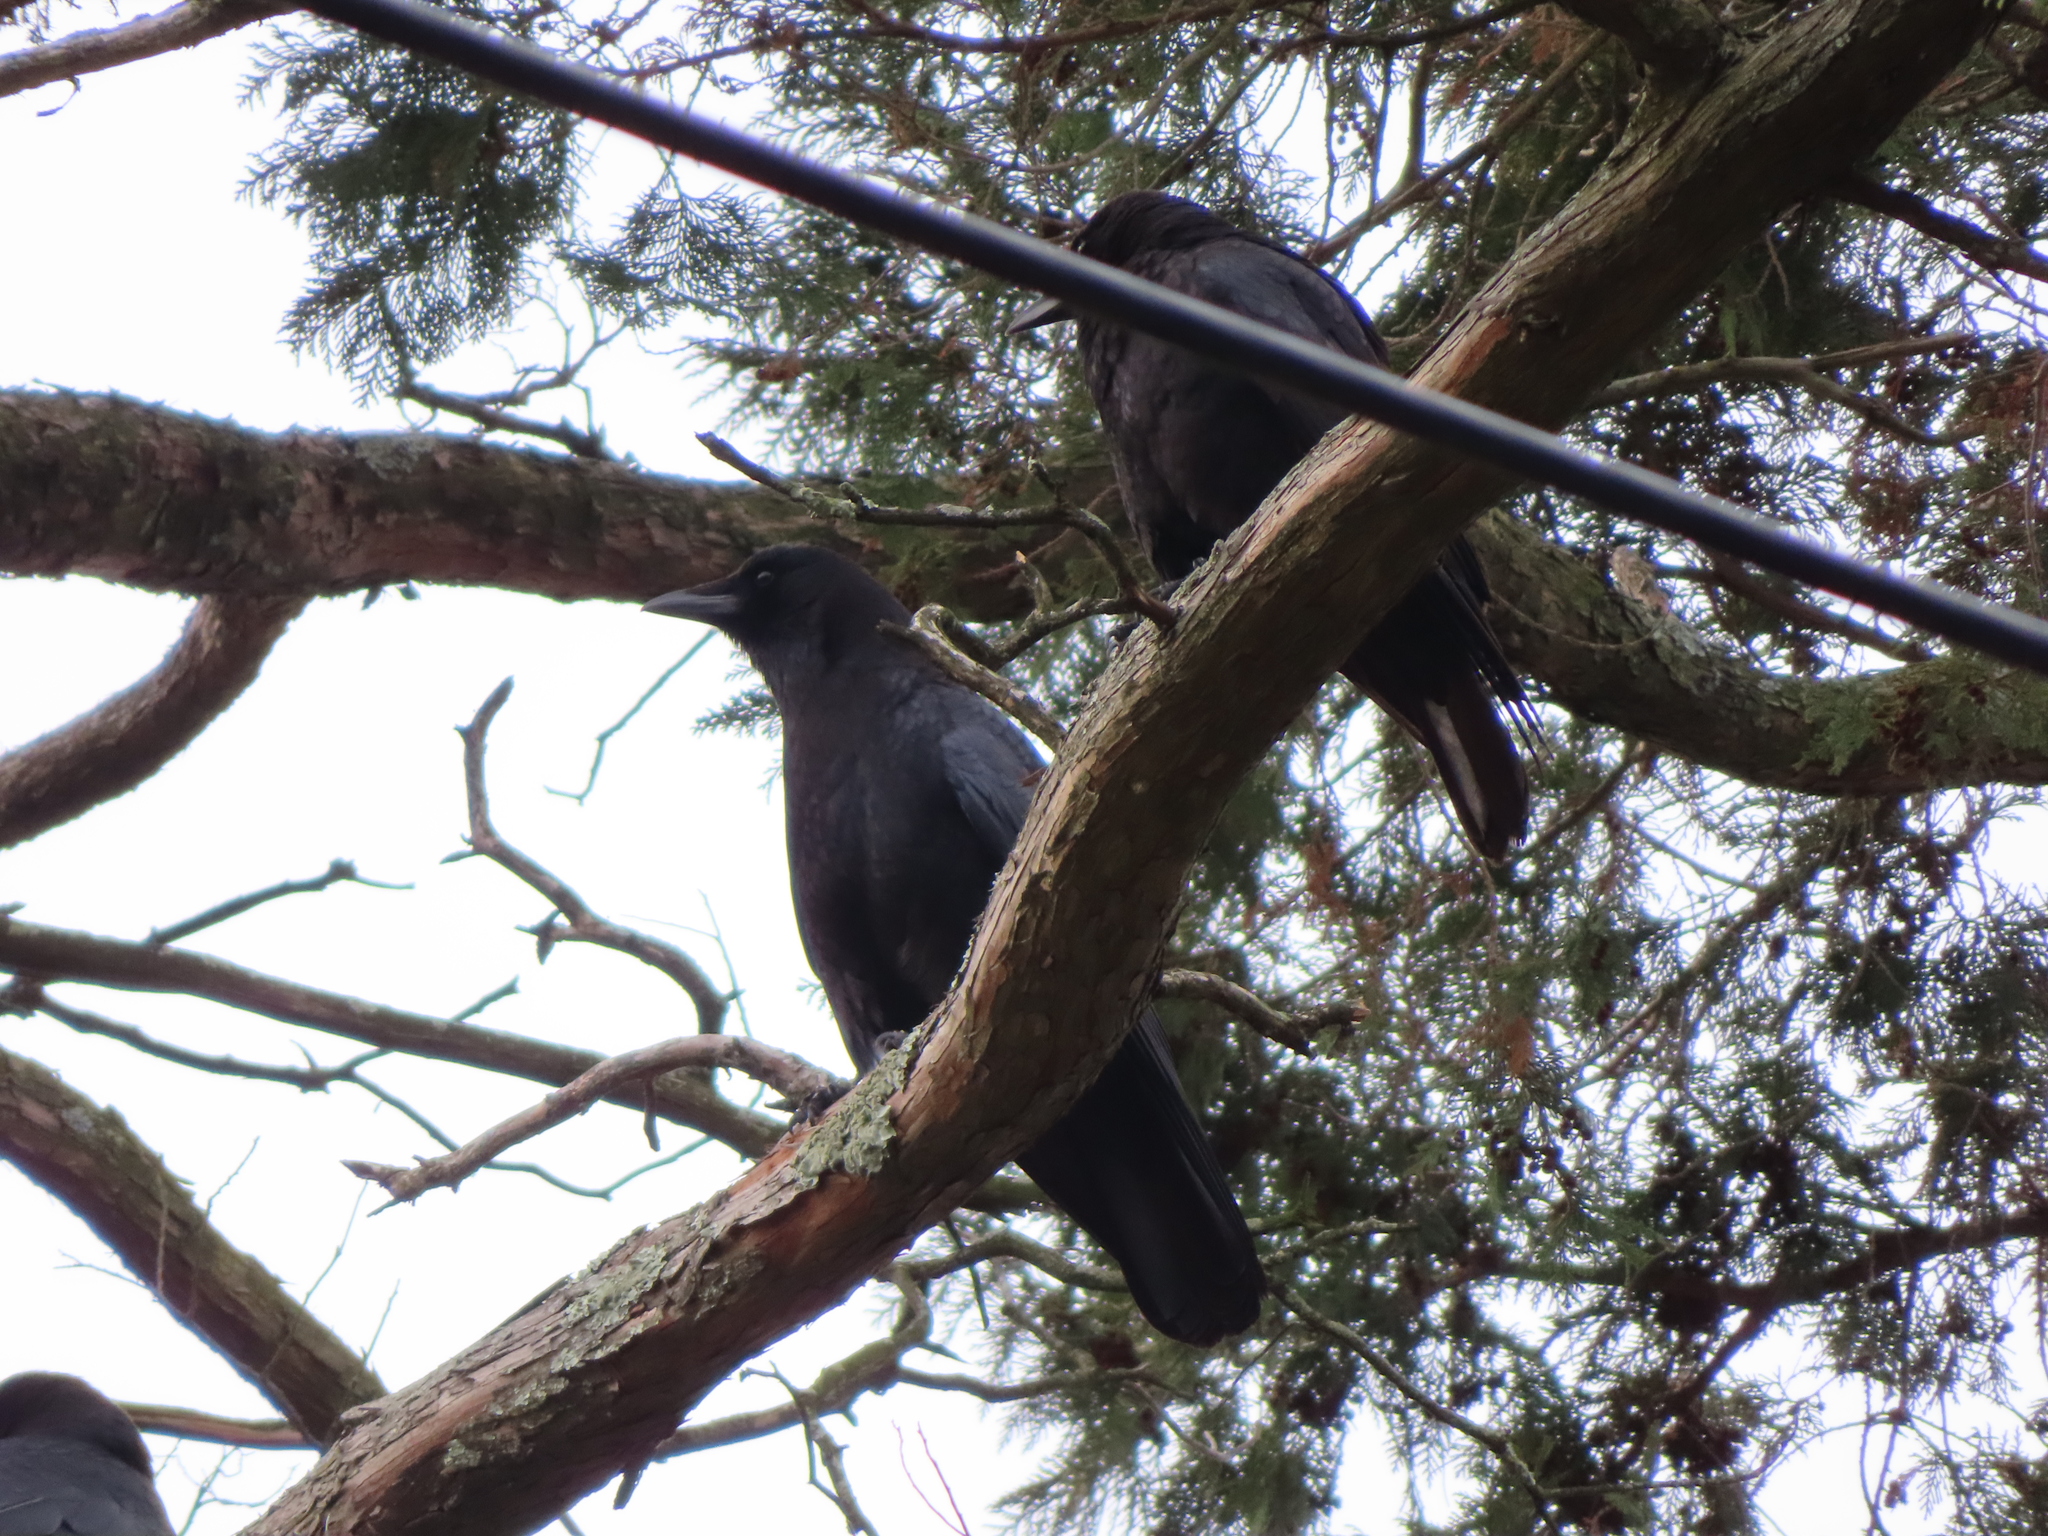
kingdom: Animalia
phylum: Chordata
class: Aves
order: Passeriformes
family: Corvidae
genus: Corvus
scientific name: Corvus brachyrhynchos
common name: American crow
